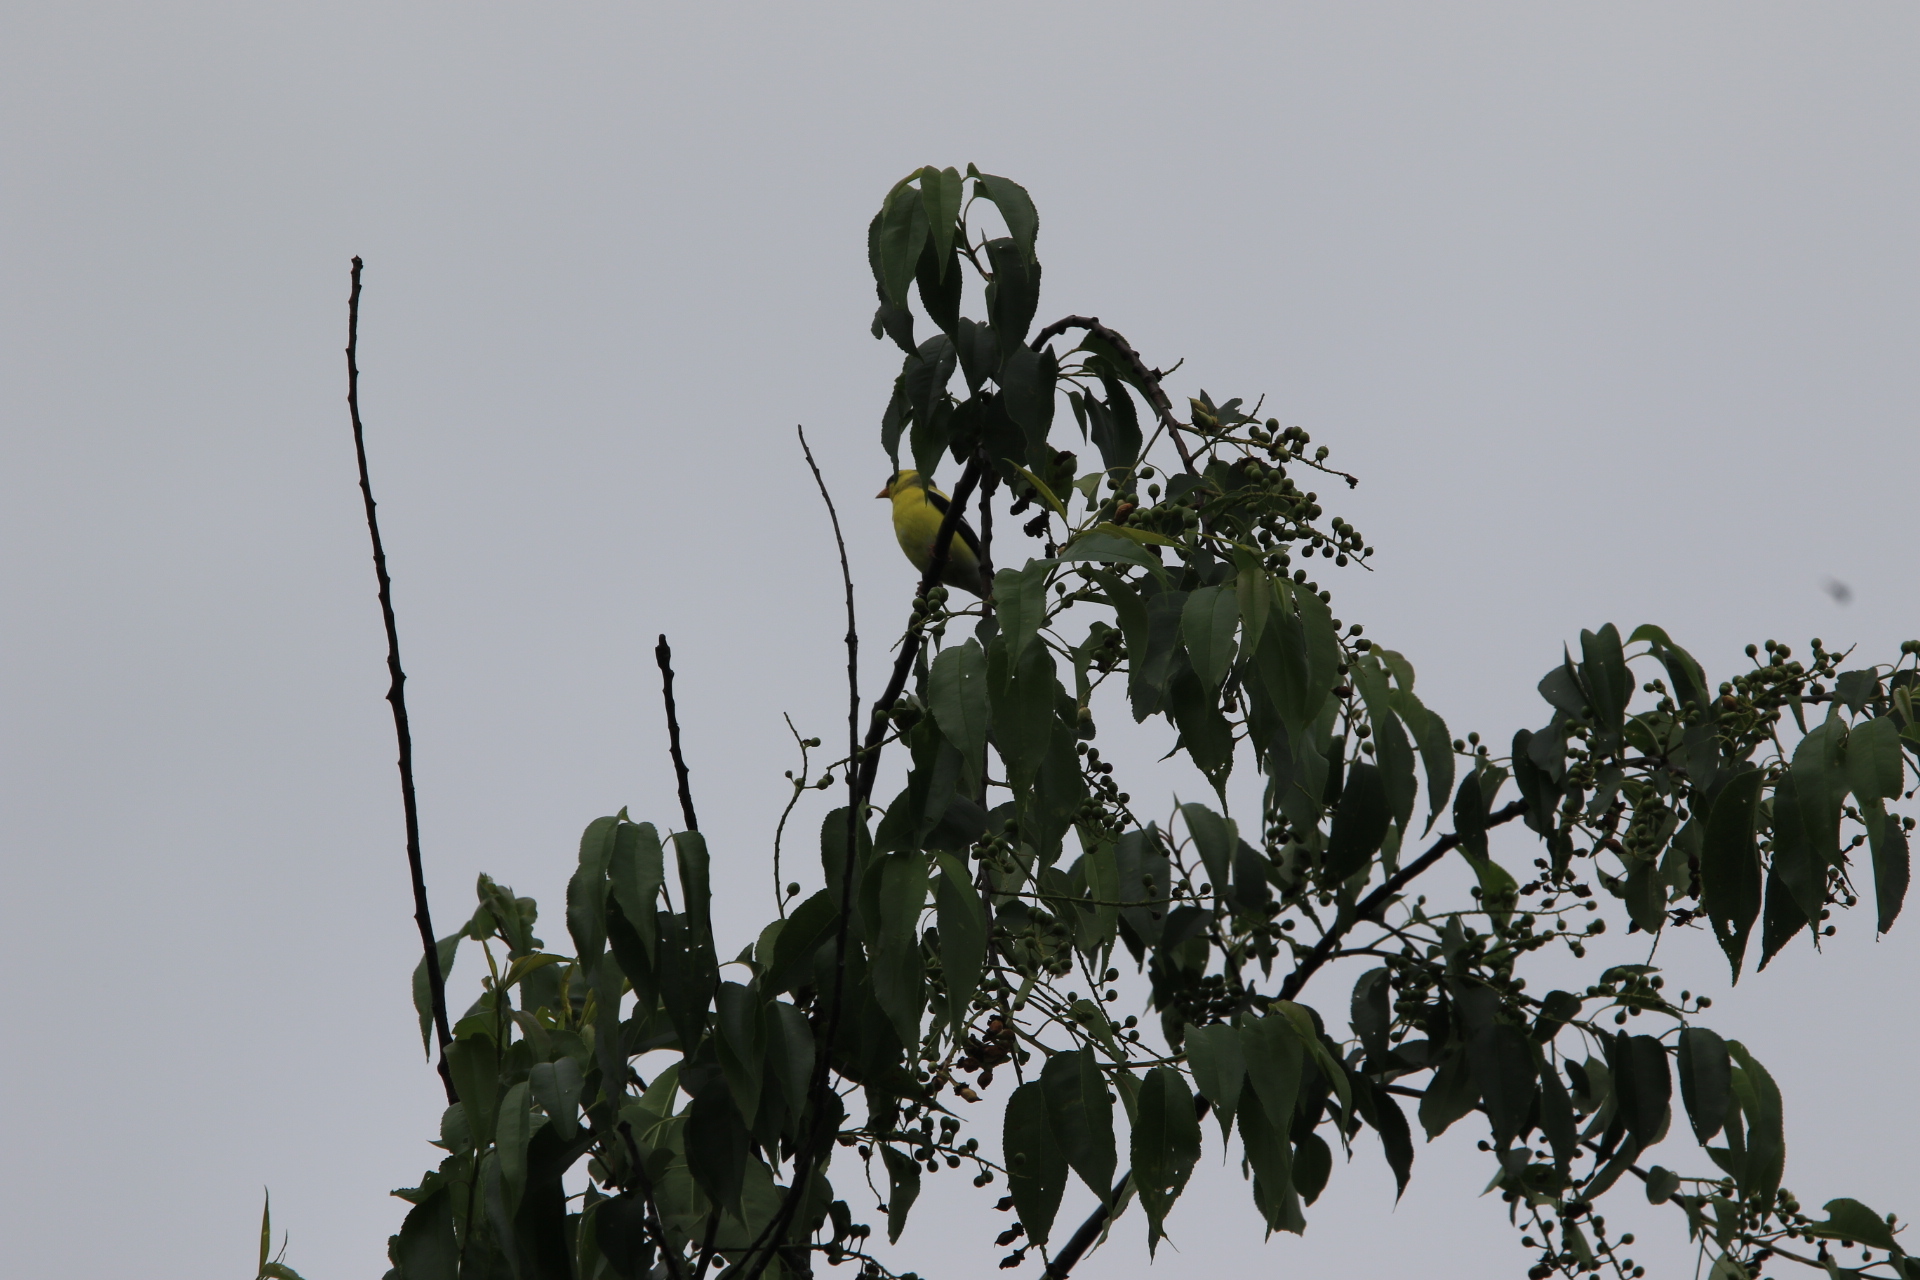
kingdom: Animalia
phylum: Chordata
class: Aves
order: Passeriformes
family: Fringillidae
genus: Spinus
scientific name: Spinus tristis
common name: American goldfinch
